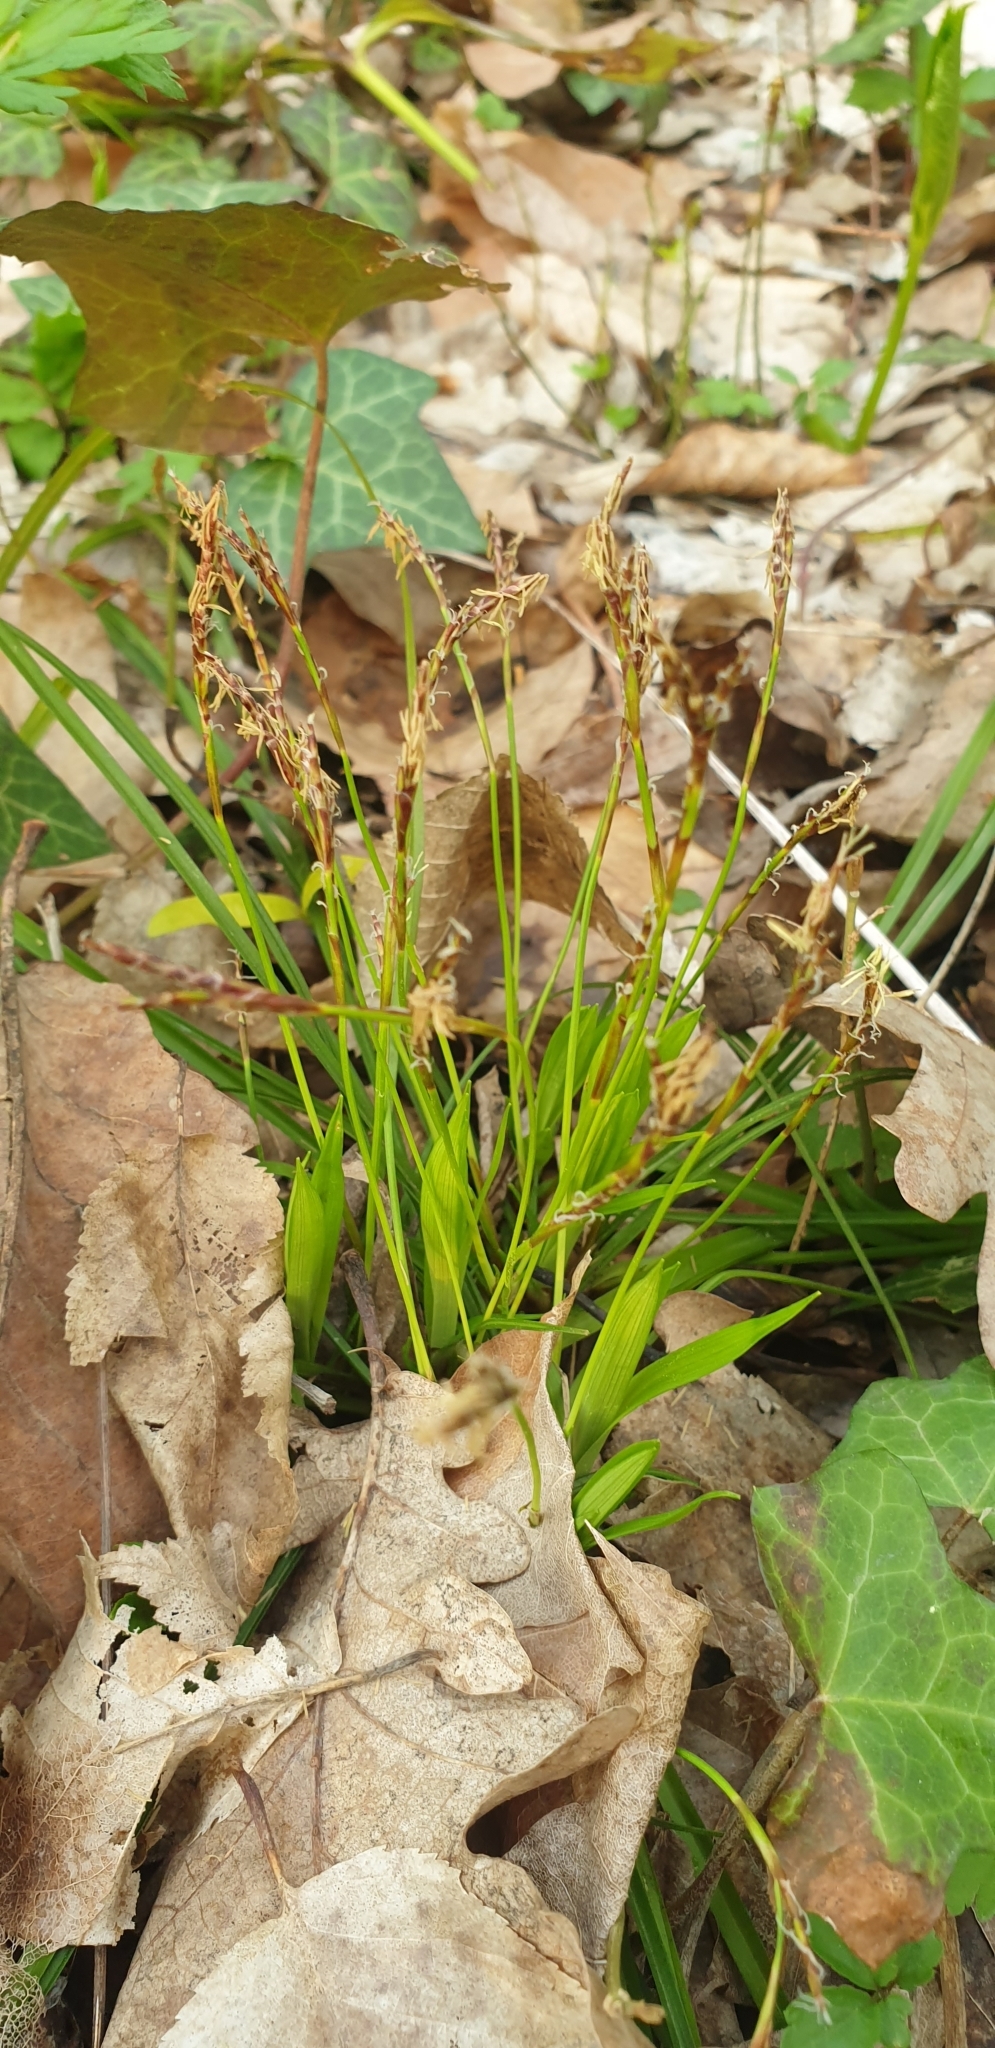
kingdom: Plantae
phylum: Tracheophyta
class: Liliopsida
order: Poales
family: Cyperaceae
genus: Carex
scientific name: Carex digitata
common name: Fingered sedge
